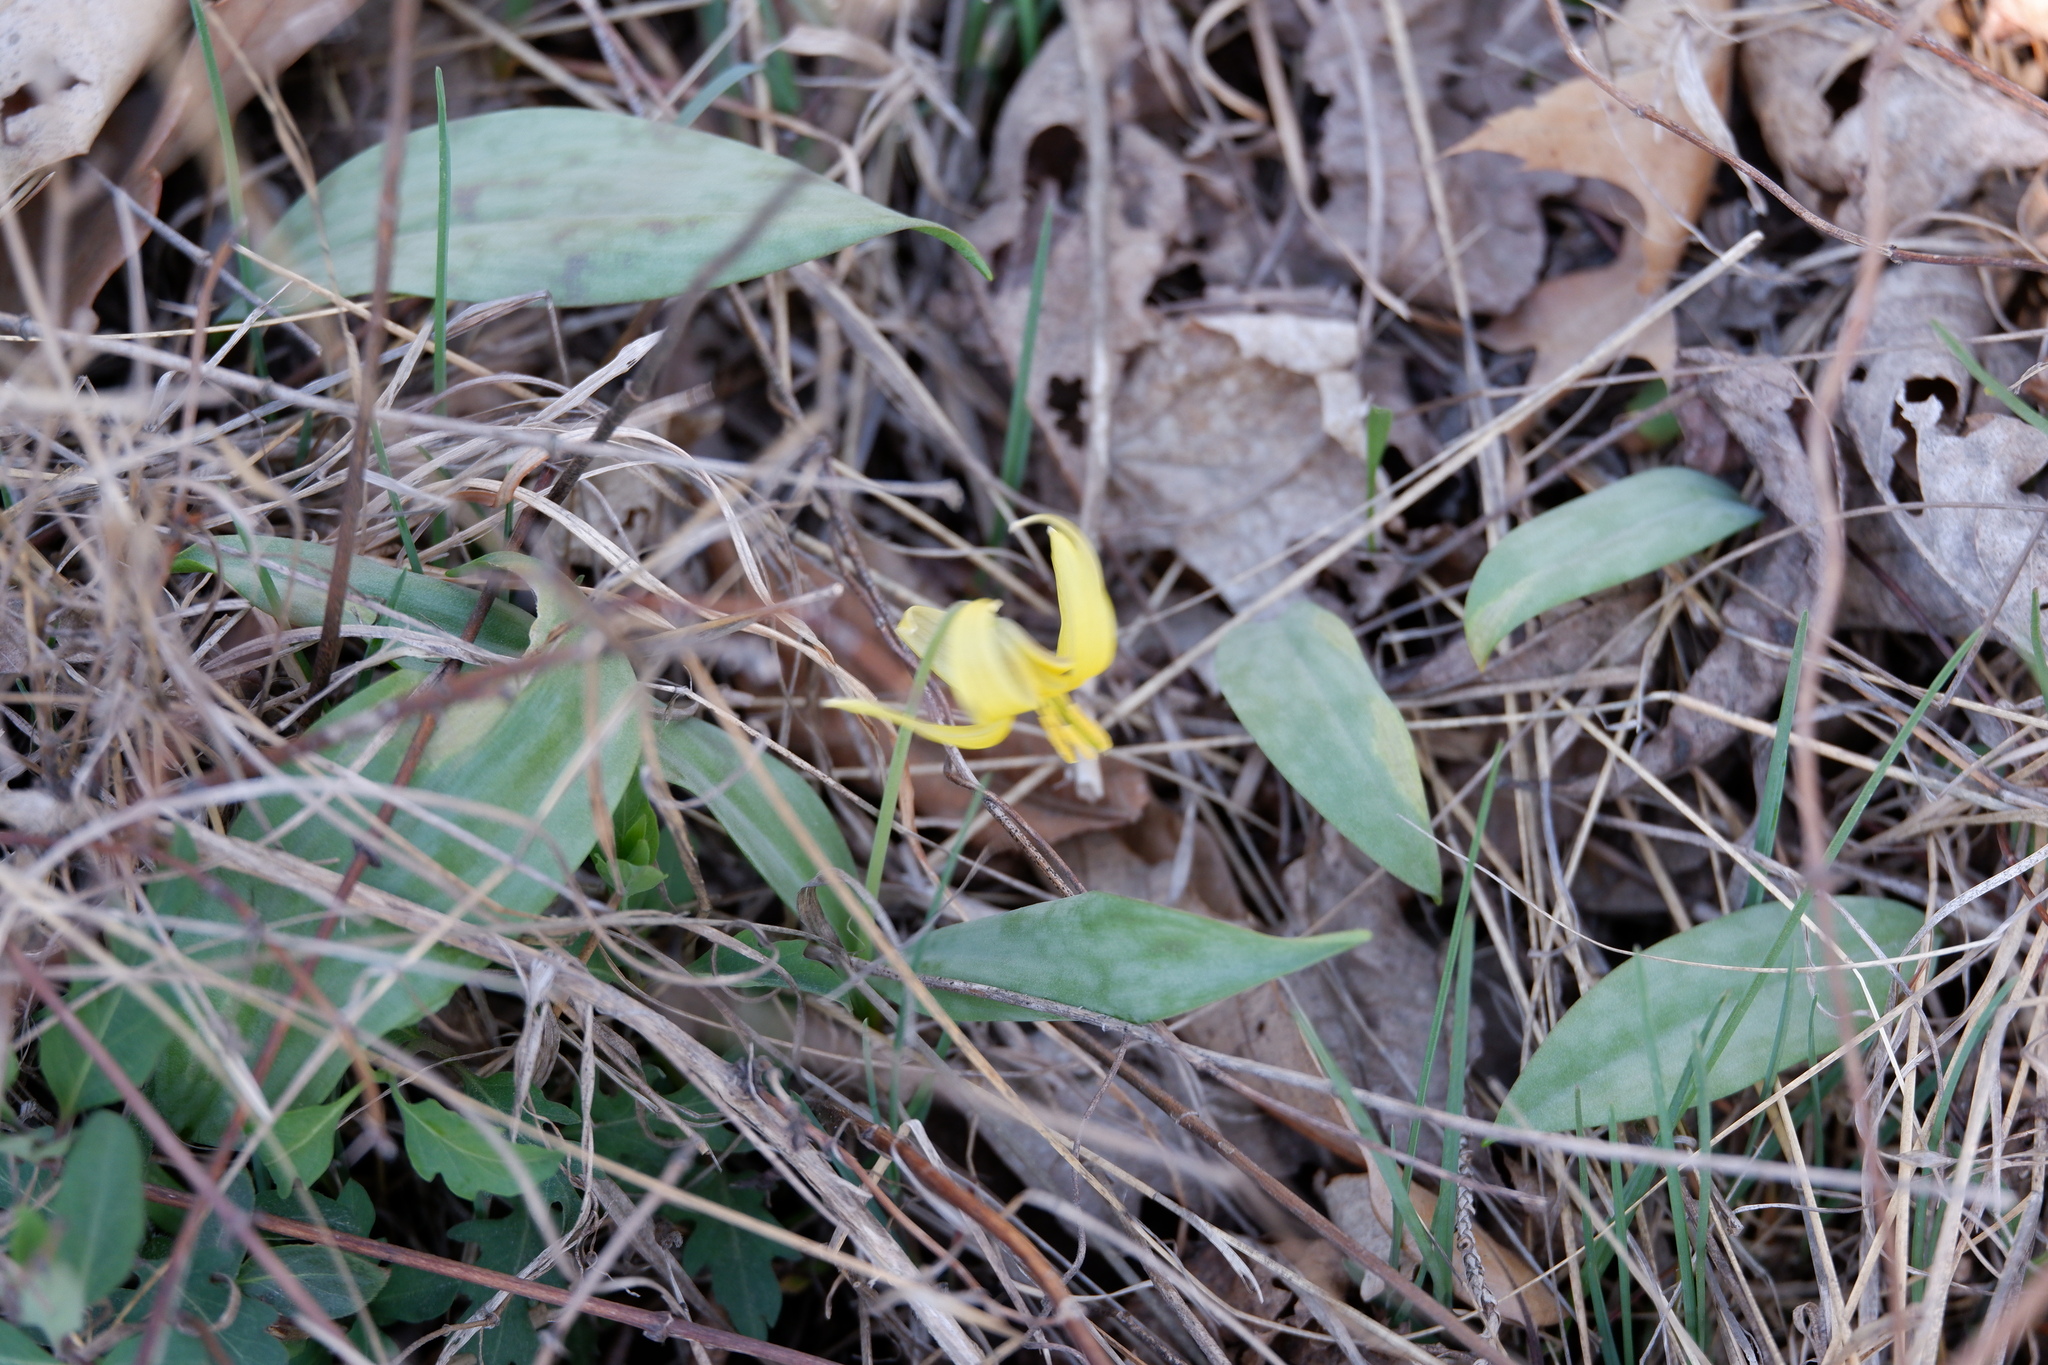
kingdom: Plantae
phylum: Tracheophyta
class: Liliopsida
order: Liliales
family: Liliaceae
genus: Erythronium
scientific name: Erythronium americanum
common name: Yellow adder's-tongue
